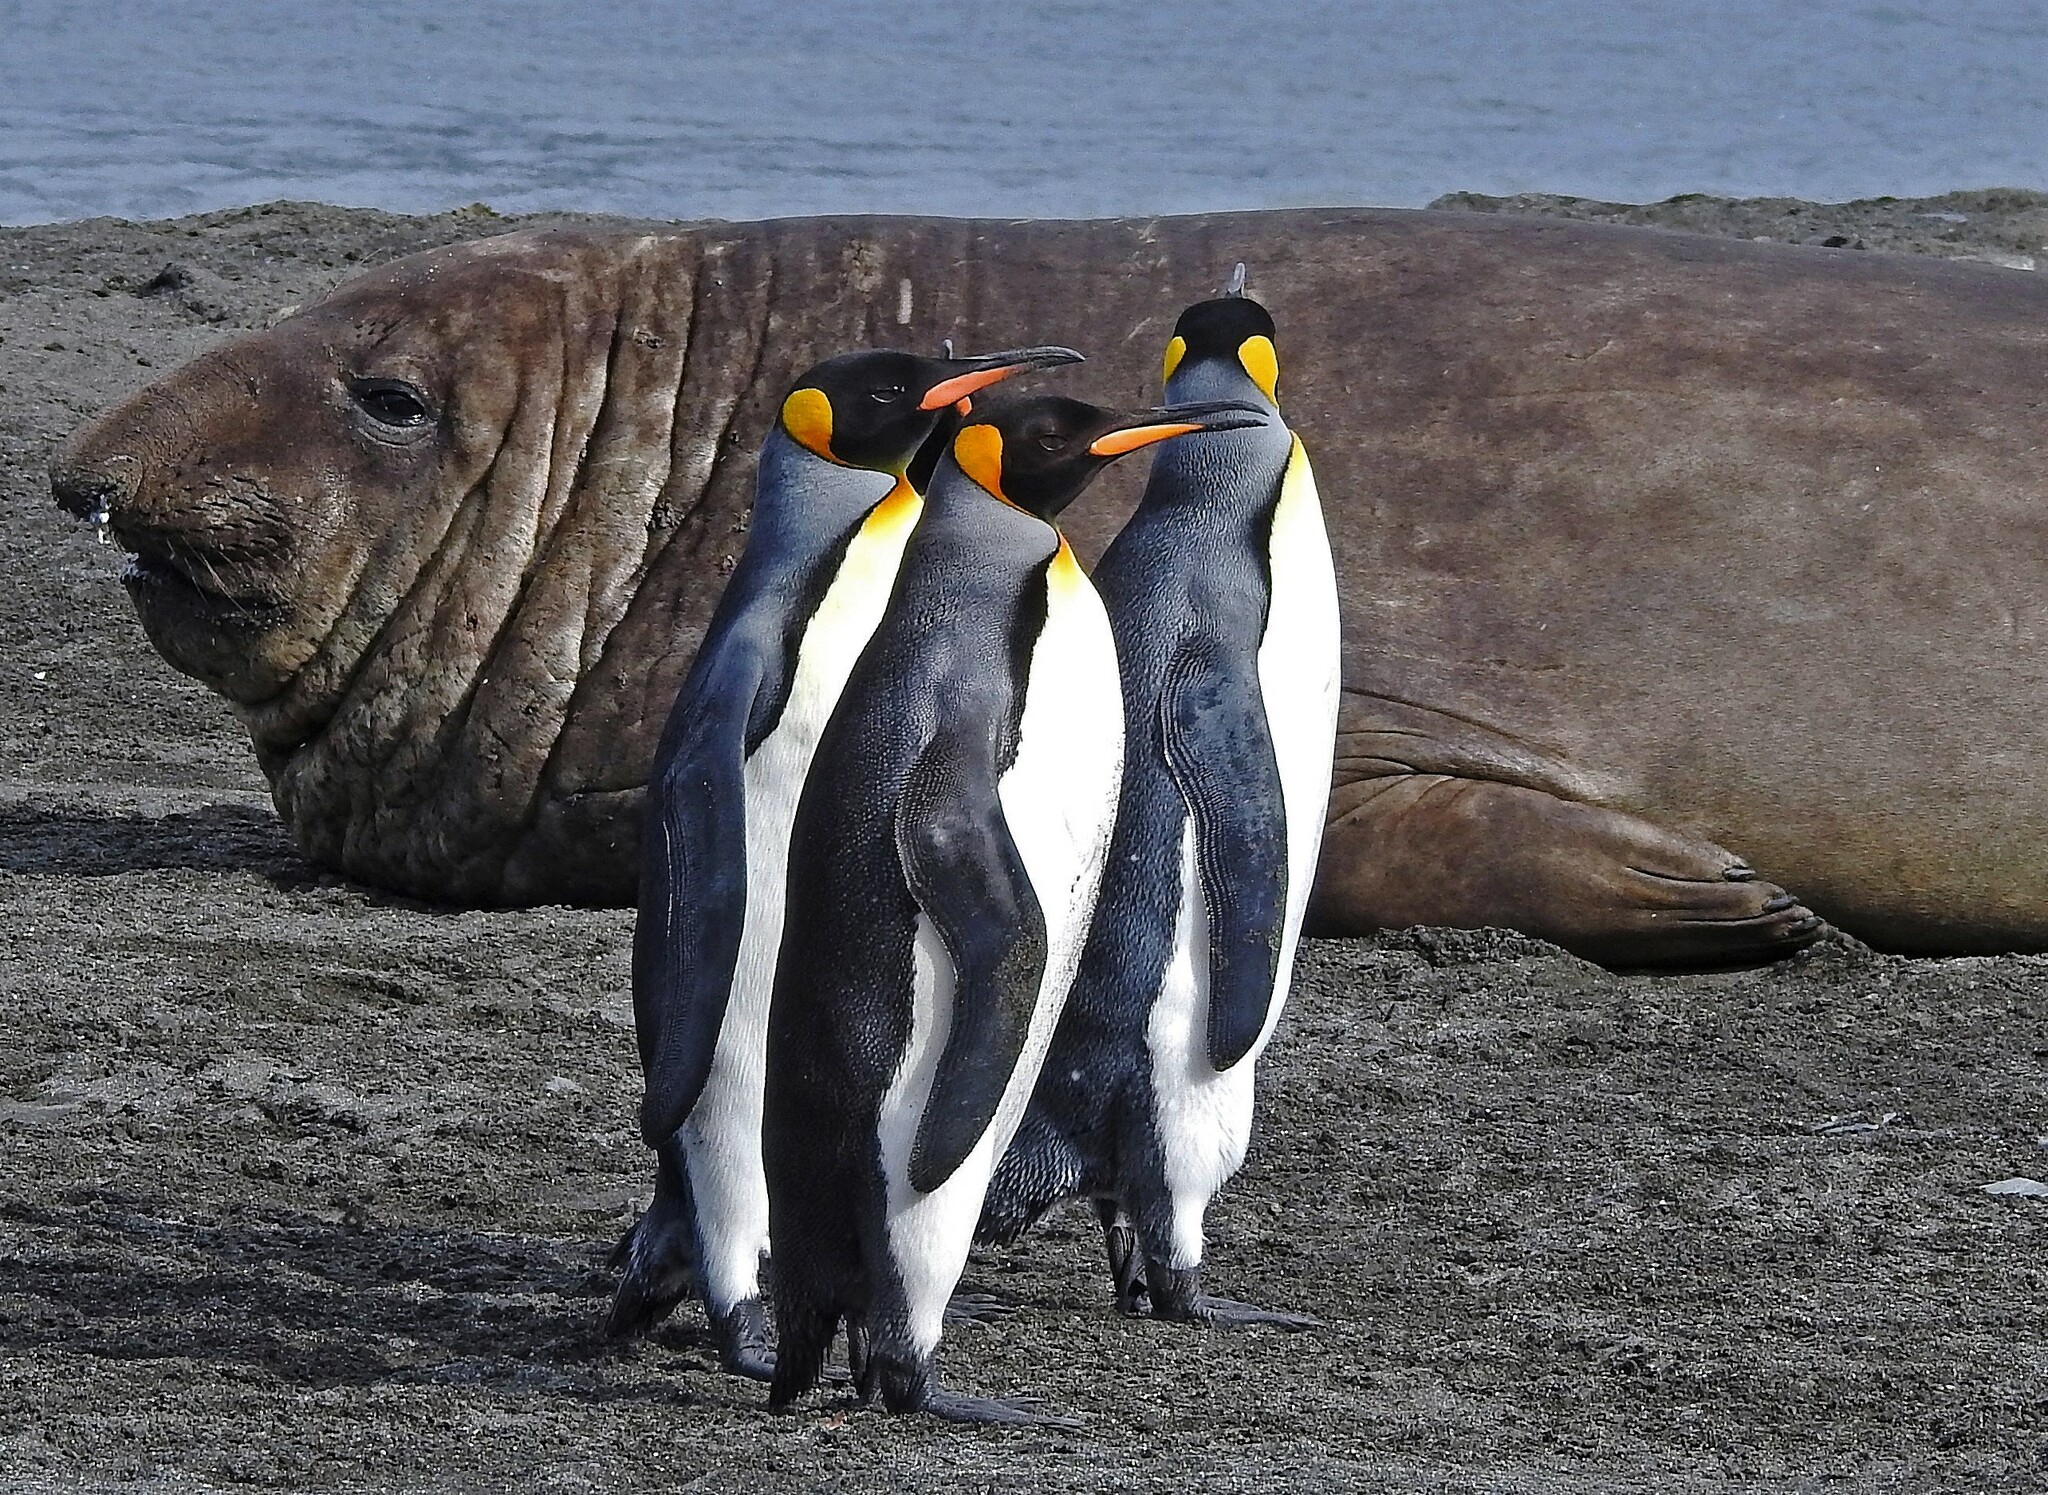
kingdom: Animalia
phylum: Chordata
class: Aves
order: Sphenisciformes
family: Spheniscidae
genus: Aptenodytes
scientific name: Aptenodytes patagonicus
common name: King penguin
